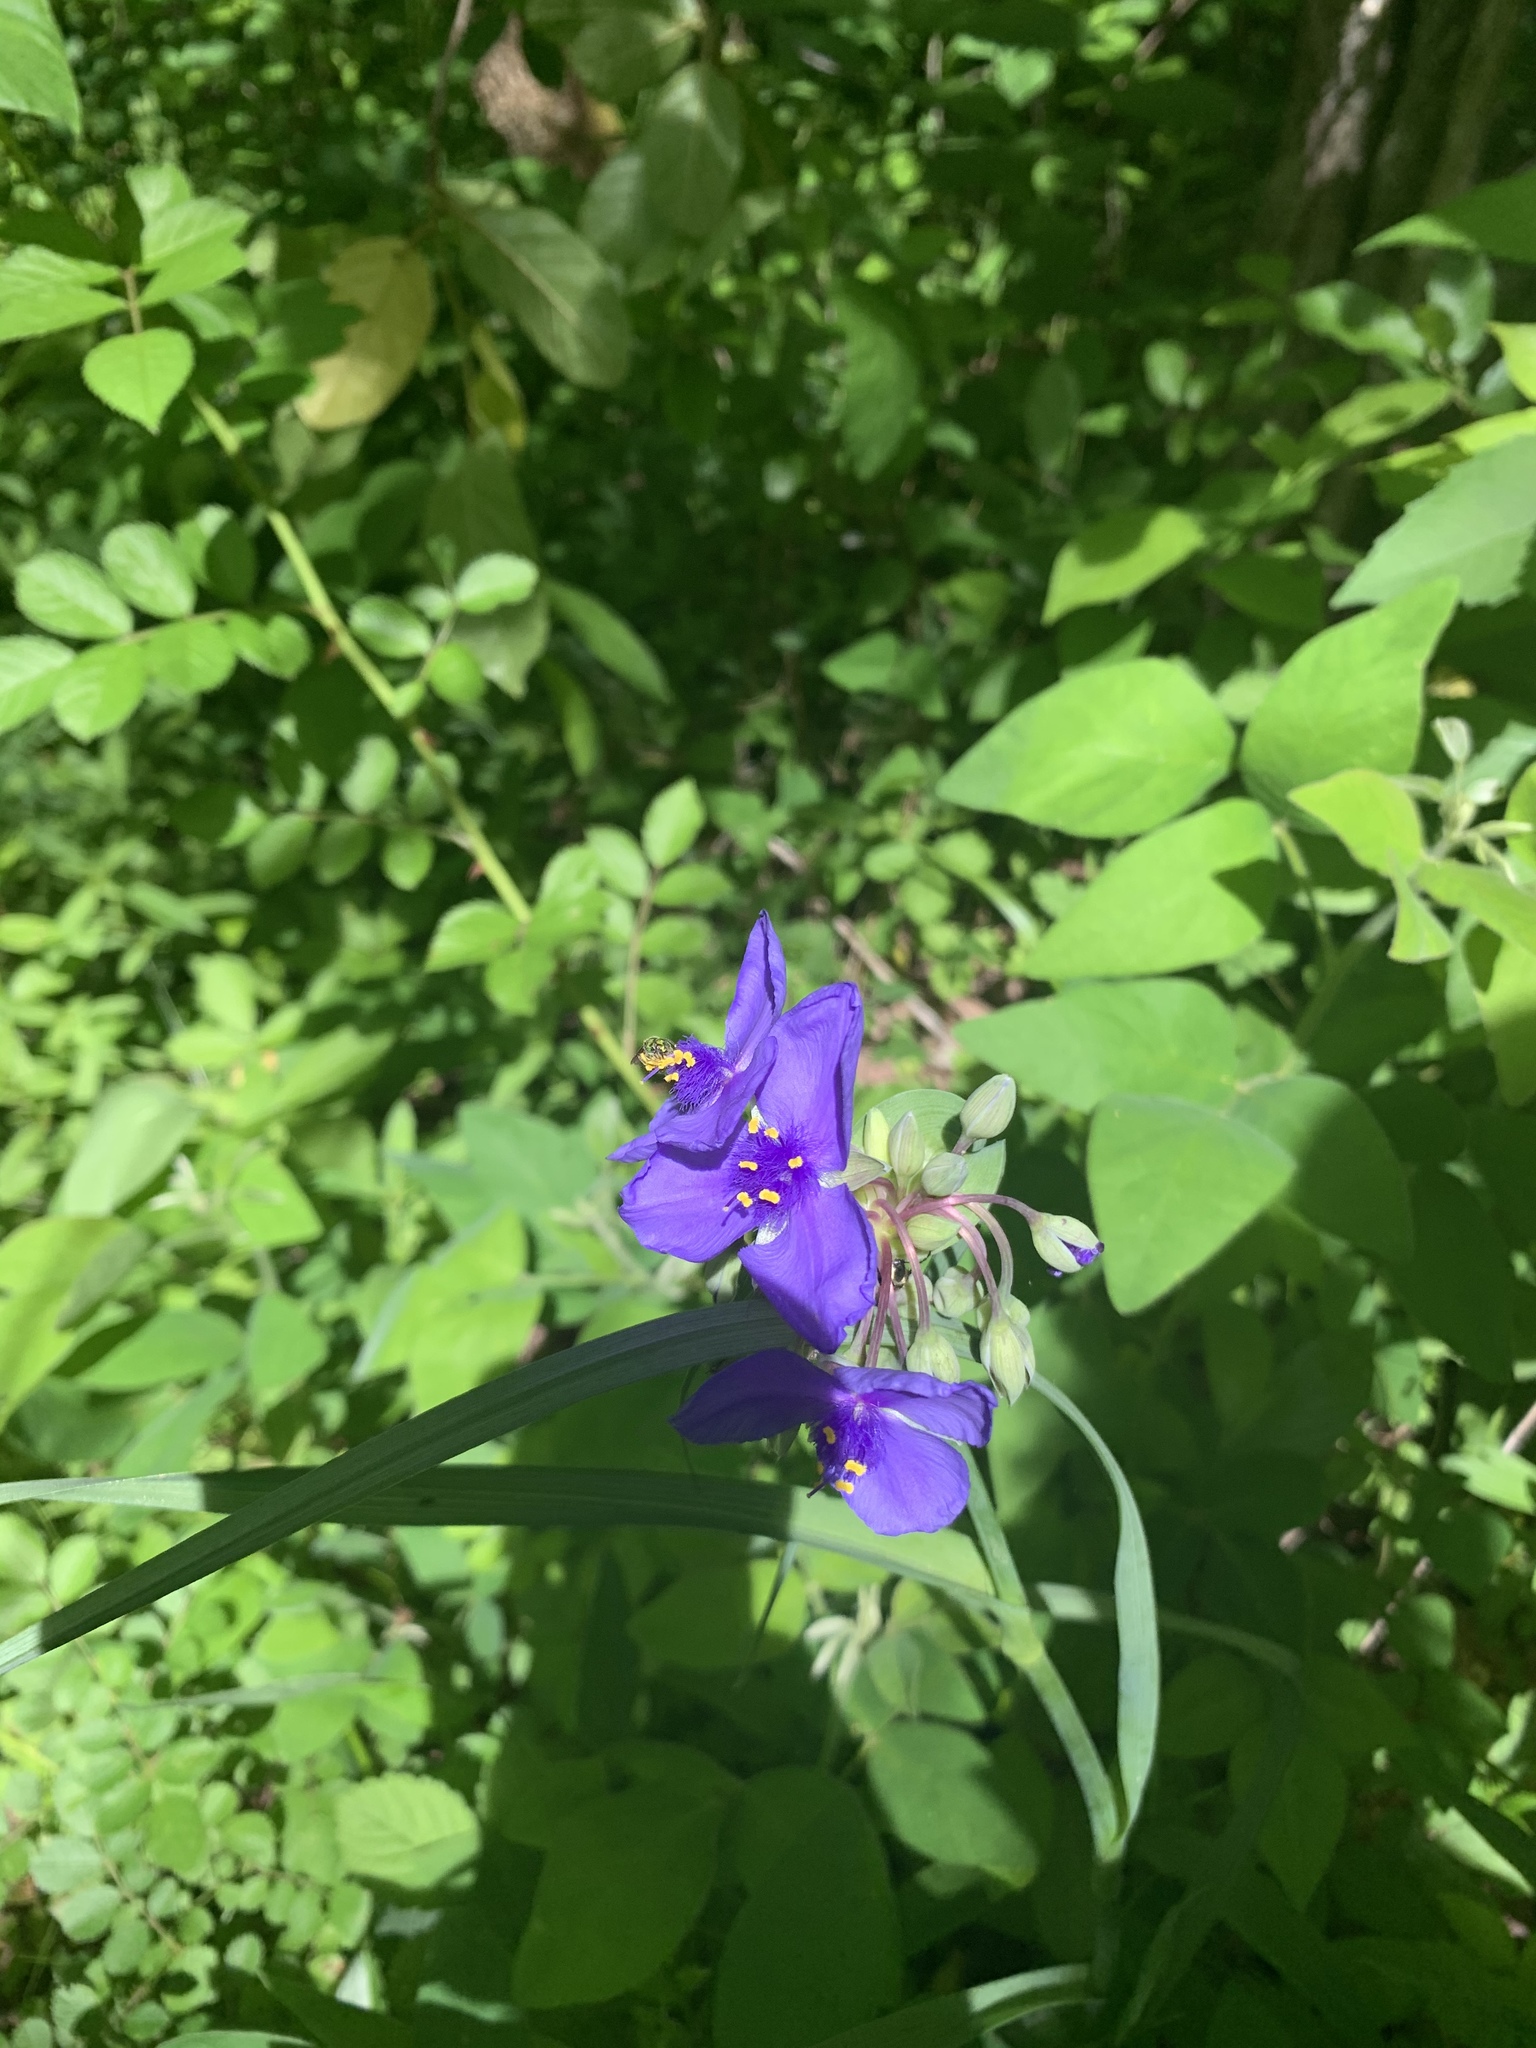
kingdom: Plantae
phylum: Tracheophyta
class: Liliopsida
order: Commelinales
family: Commelinaceae
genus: Tradescantia
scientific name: Tradescantia ohiensis
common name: Ohio spiderwort
